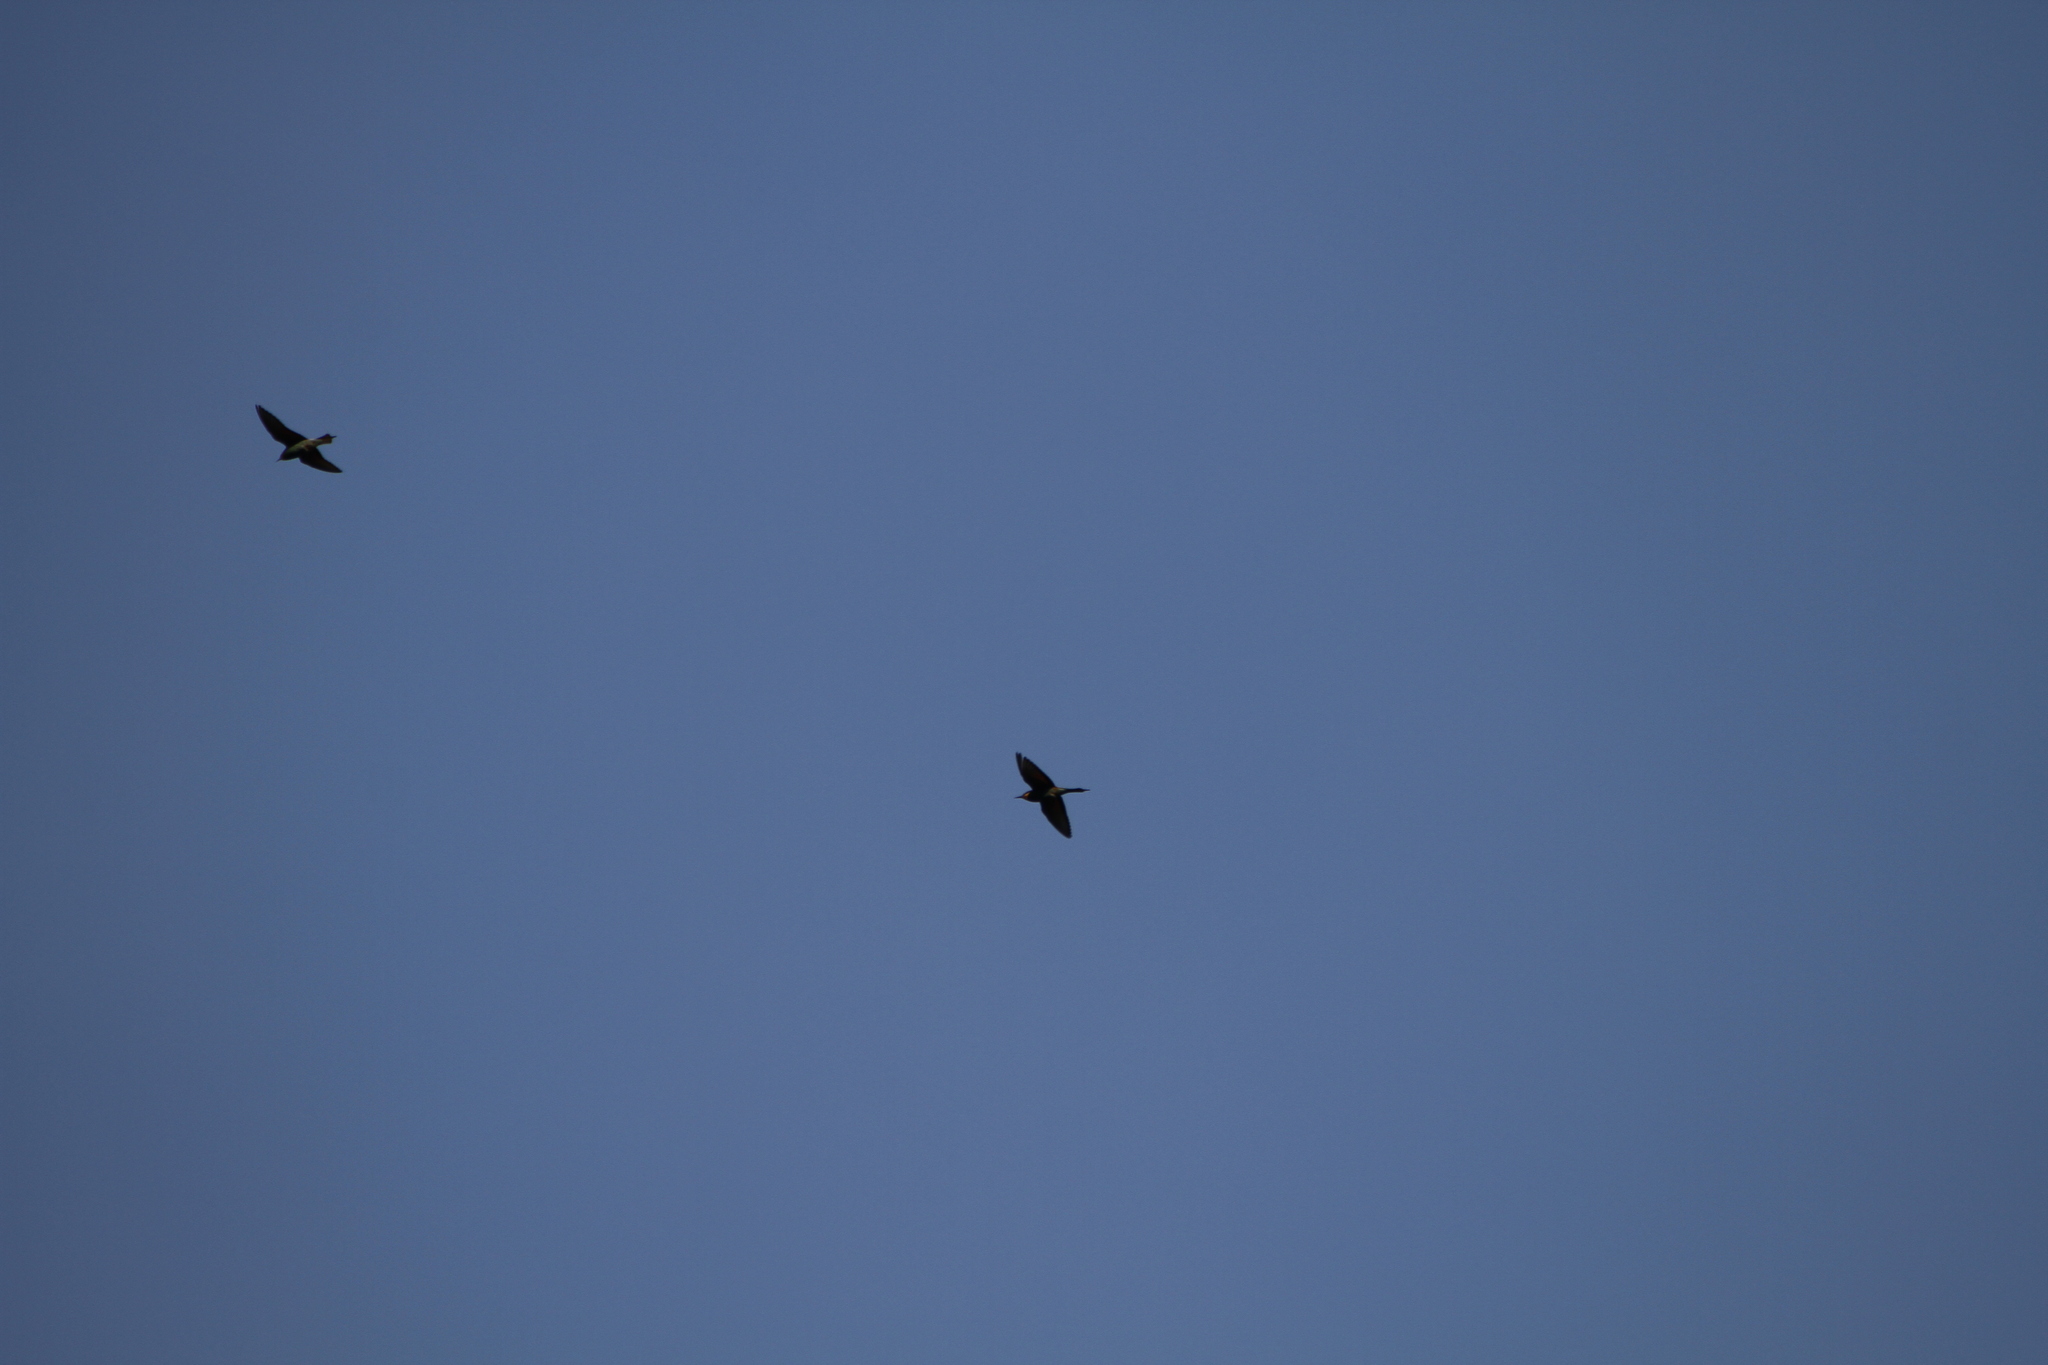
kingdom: Animalia
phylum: Chordata
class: Aves
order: Coraciiformes
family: Meropidae
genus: Merops
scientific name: Merops apiaster
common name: European bee-eater
